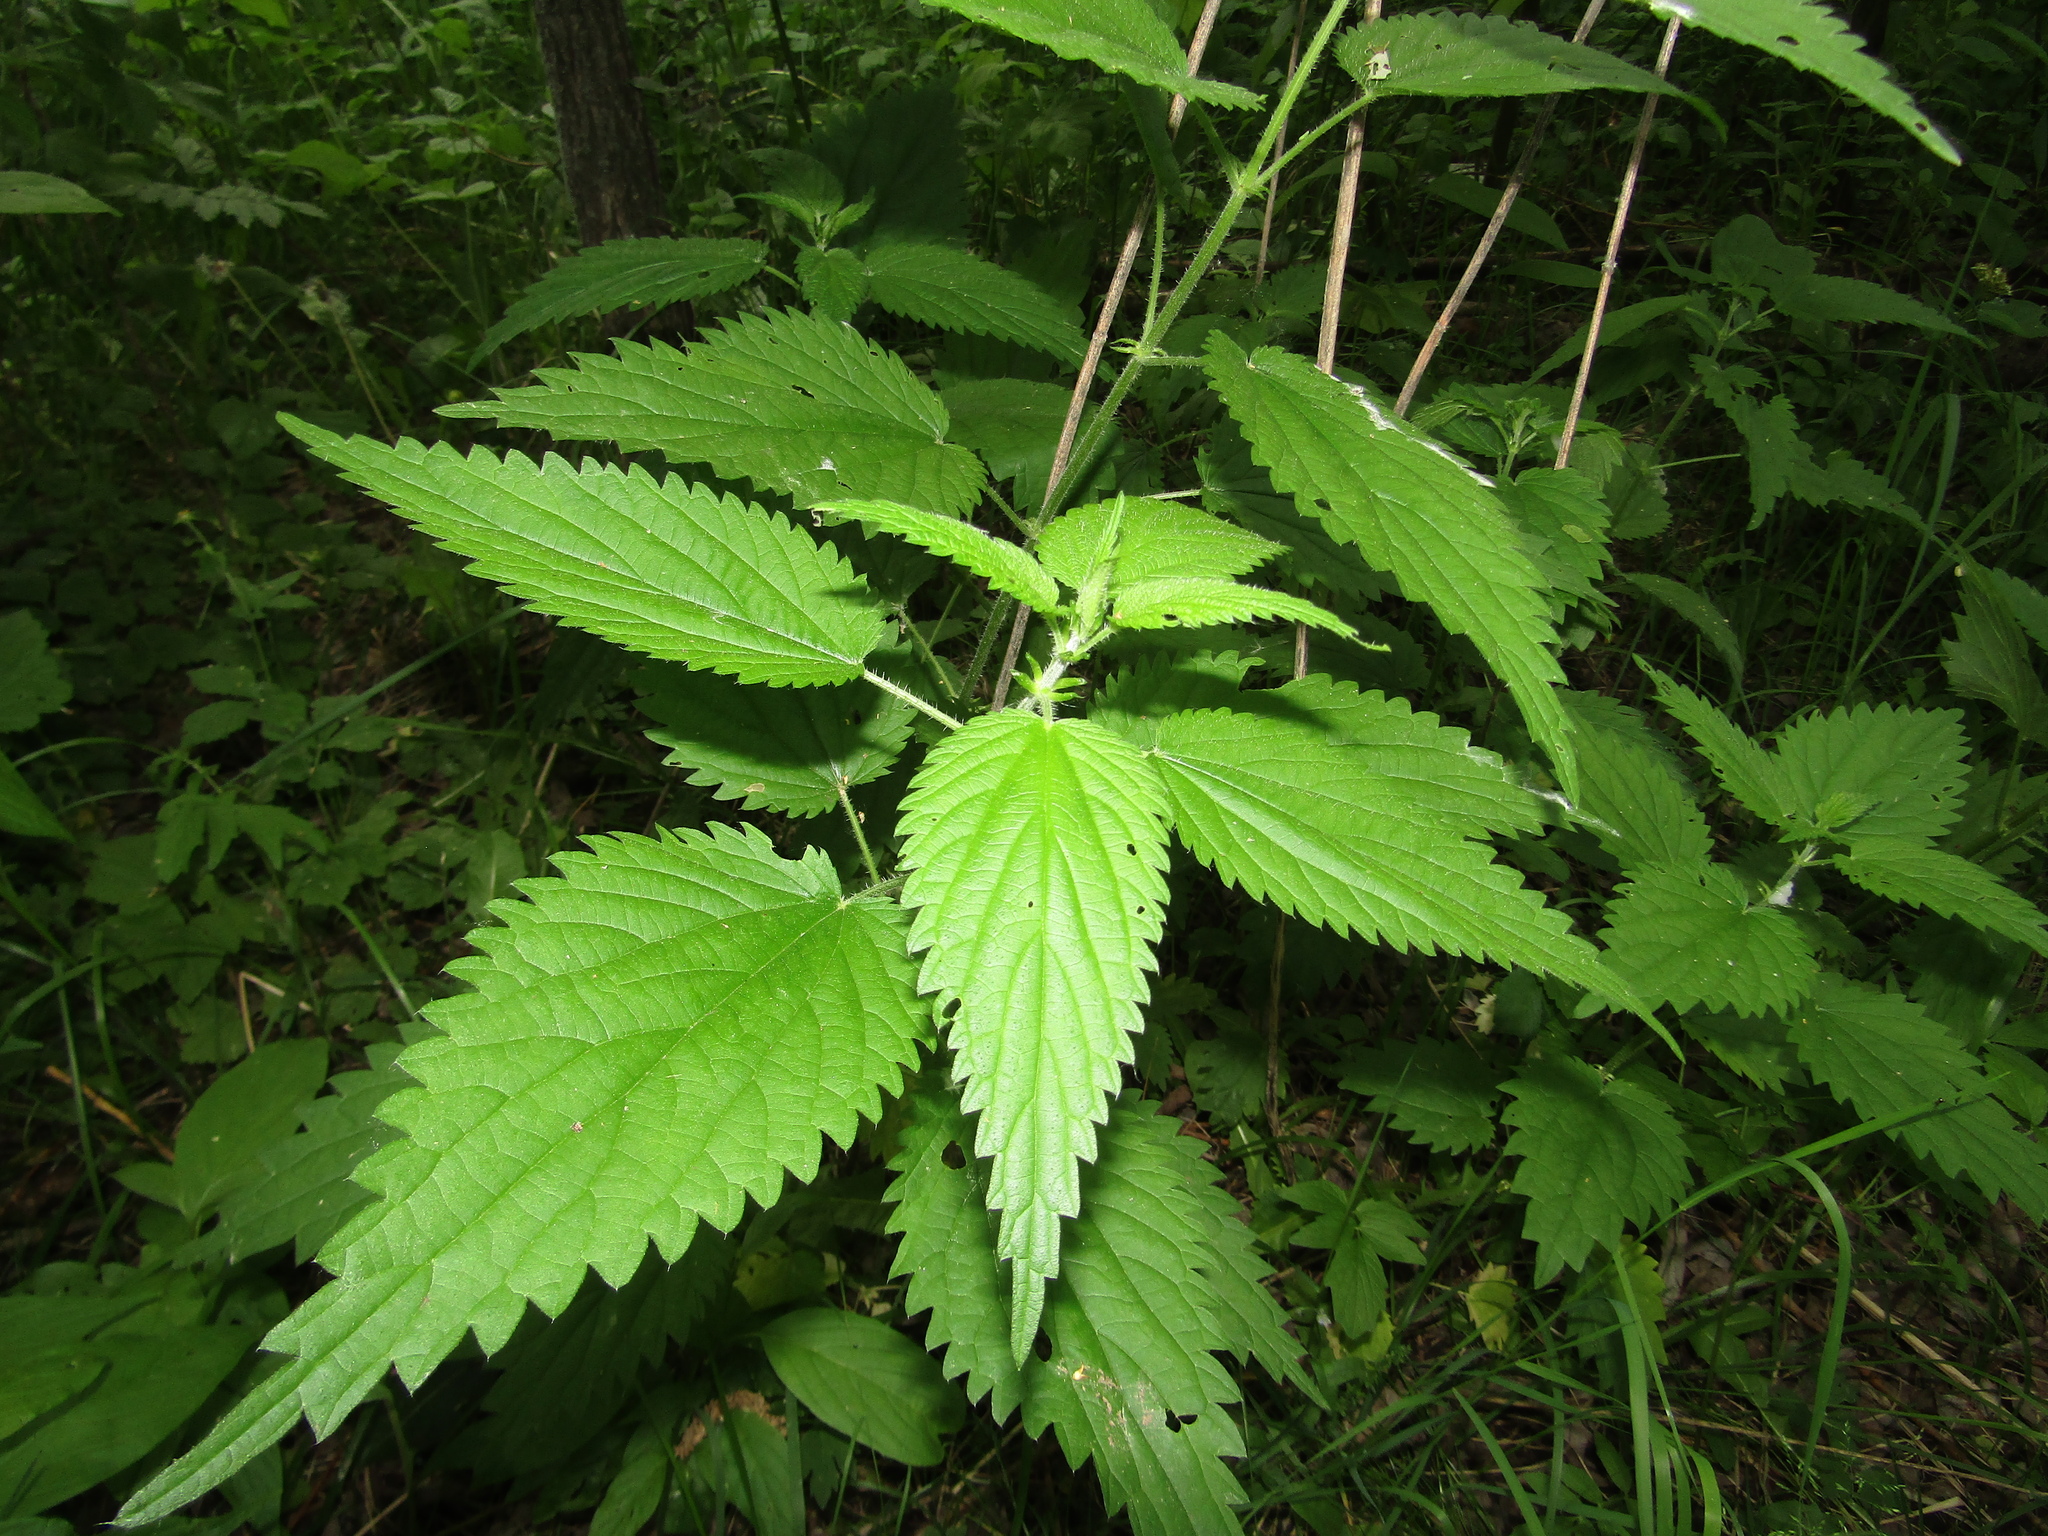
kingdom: Plantae
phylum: Tracheophyta
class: Magnoliopsida
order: Rosales
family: Urticaceae
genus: Urtica
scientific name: Urtica dioica
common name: Common nettle
